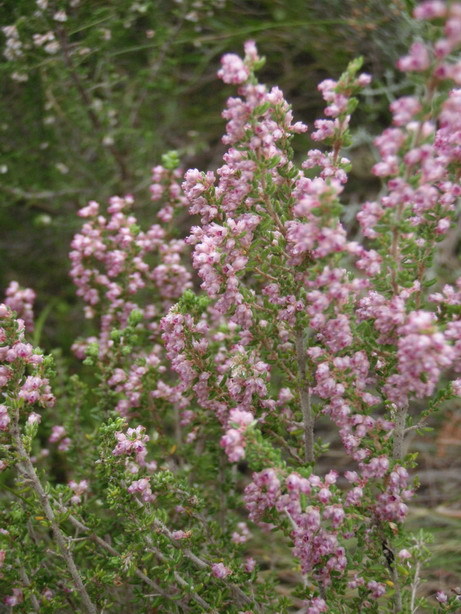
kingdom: Plantae
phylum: Tracheophyta
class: Magnoliopsida
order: Ericales
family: Ericaceae
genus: Erica
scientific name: Erica peltata
